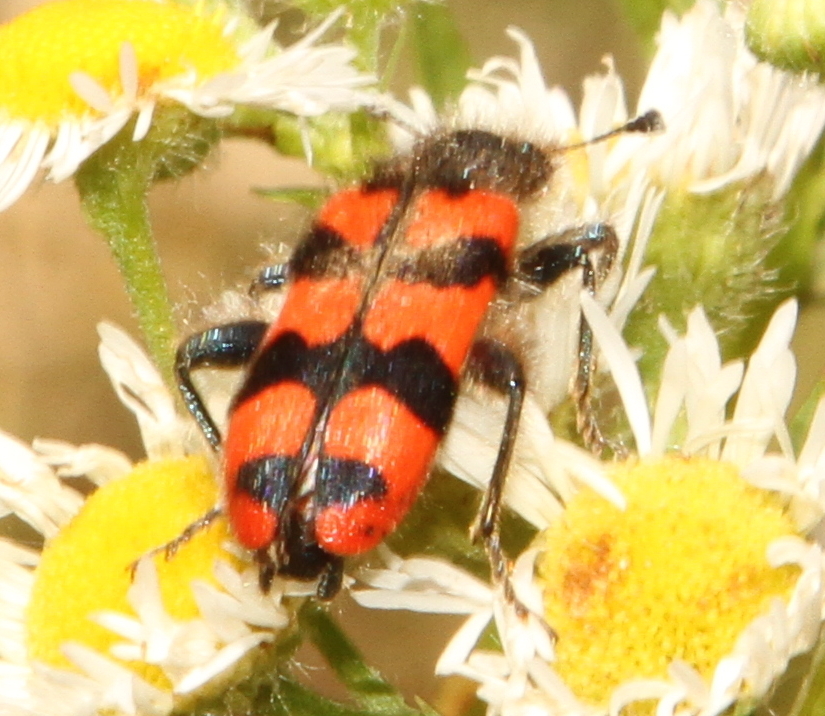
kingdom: Animalia
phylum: Arthropoda
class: Insecta
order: Coleoptera
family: Cleridae
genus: Trichodes
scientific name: Trichodes alvearius
